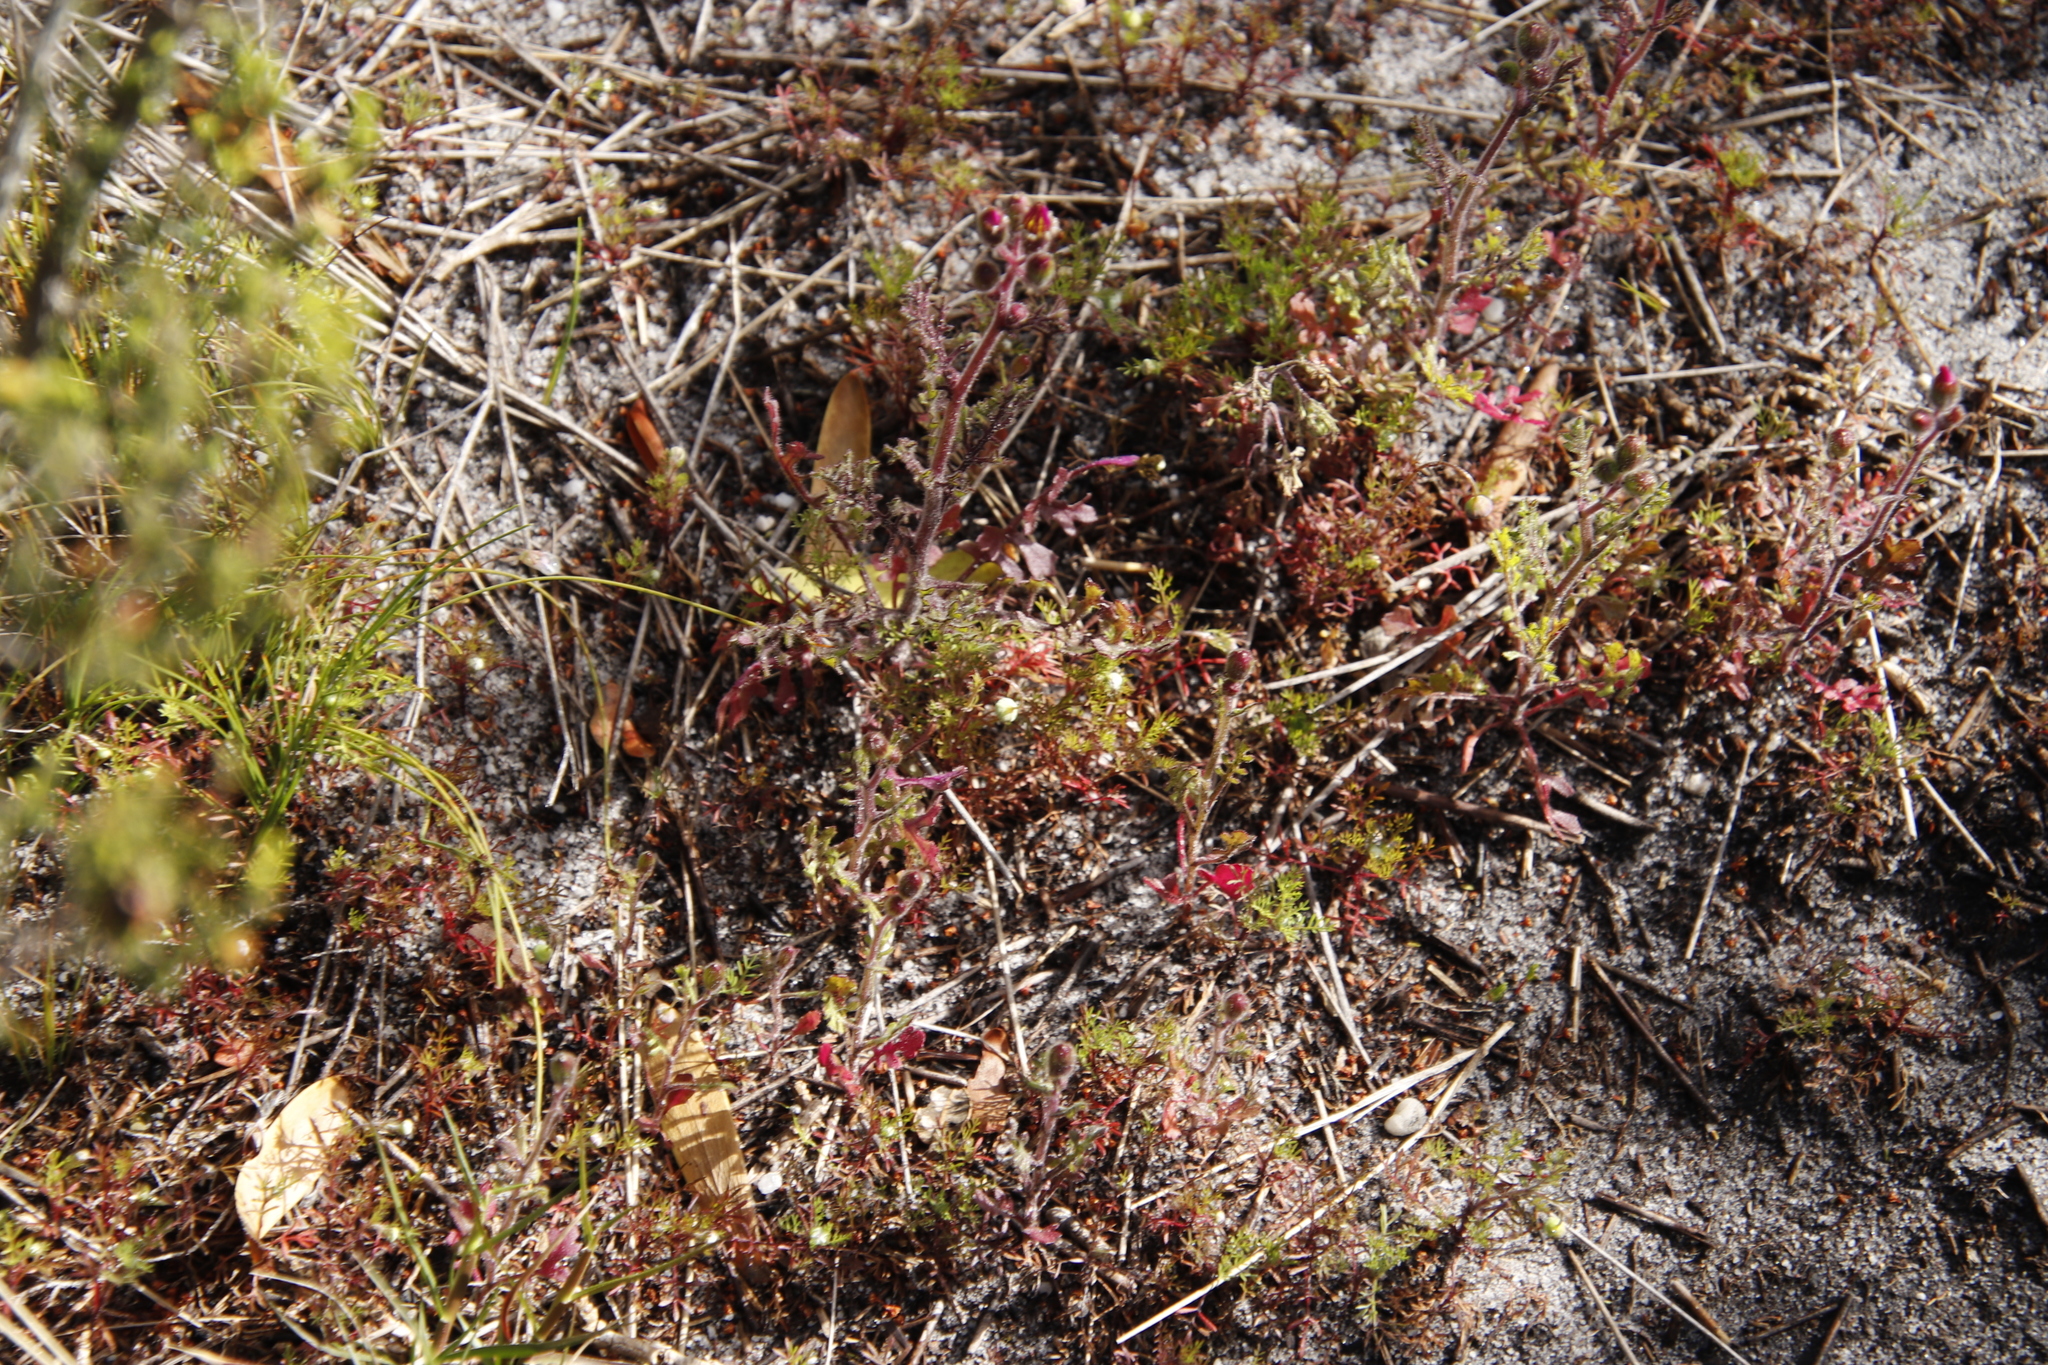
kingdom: Plantae
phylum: Tracheophyta
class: Magnoliopsida
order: Asterales
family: Asteraceae
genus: Senecio
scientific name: Senecio arenarius
